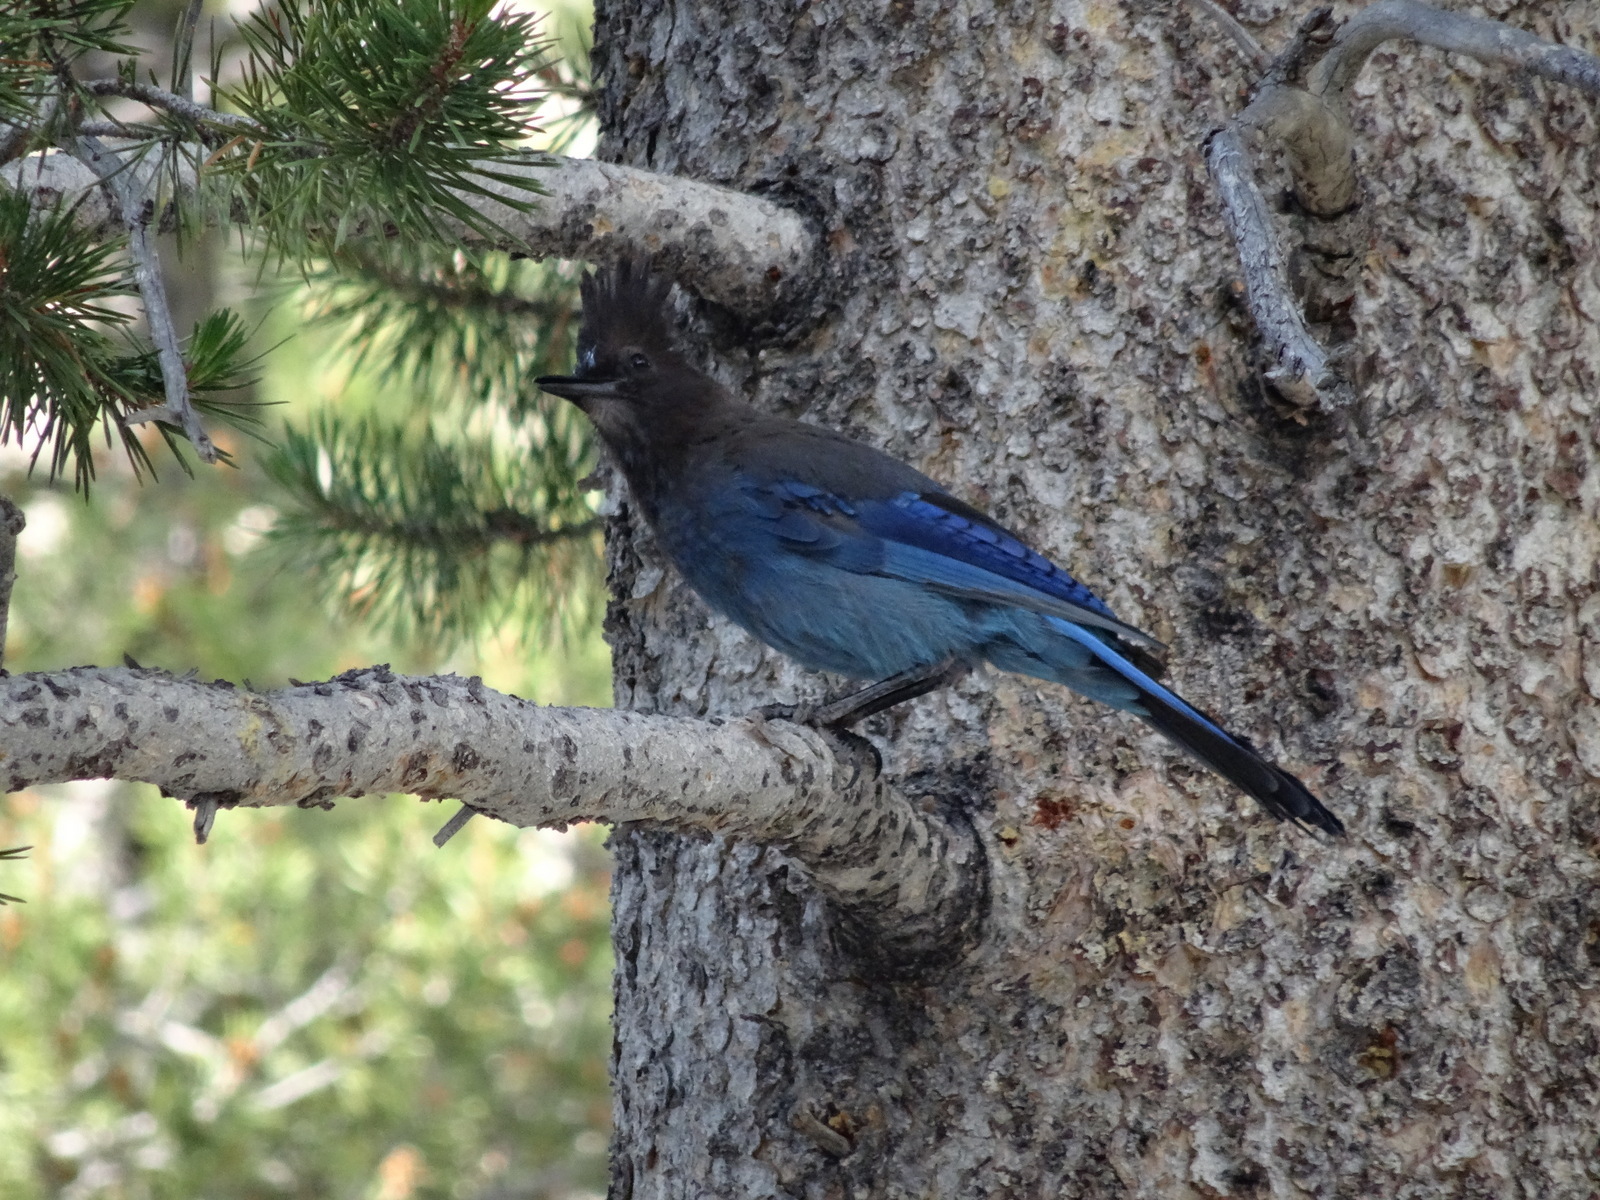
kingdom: Animalia
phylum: Chordata
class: Aves
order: Passeriformes
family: Corvidae
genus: Cyanocitta
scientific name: Cyanocitta stelleri
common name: Steller's jay
